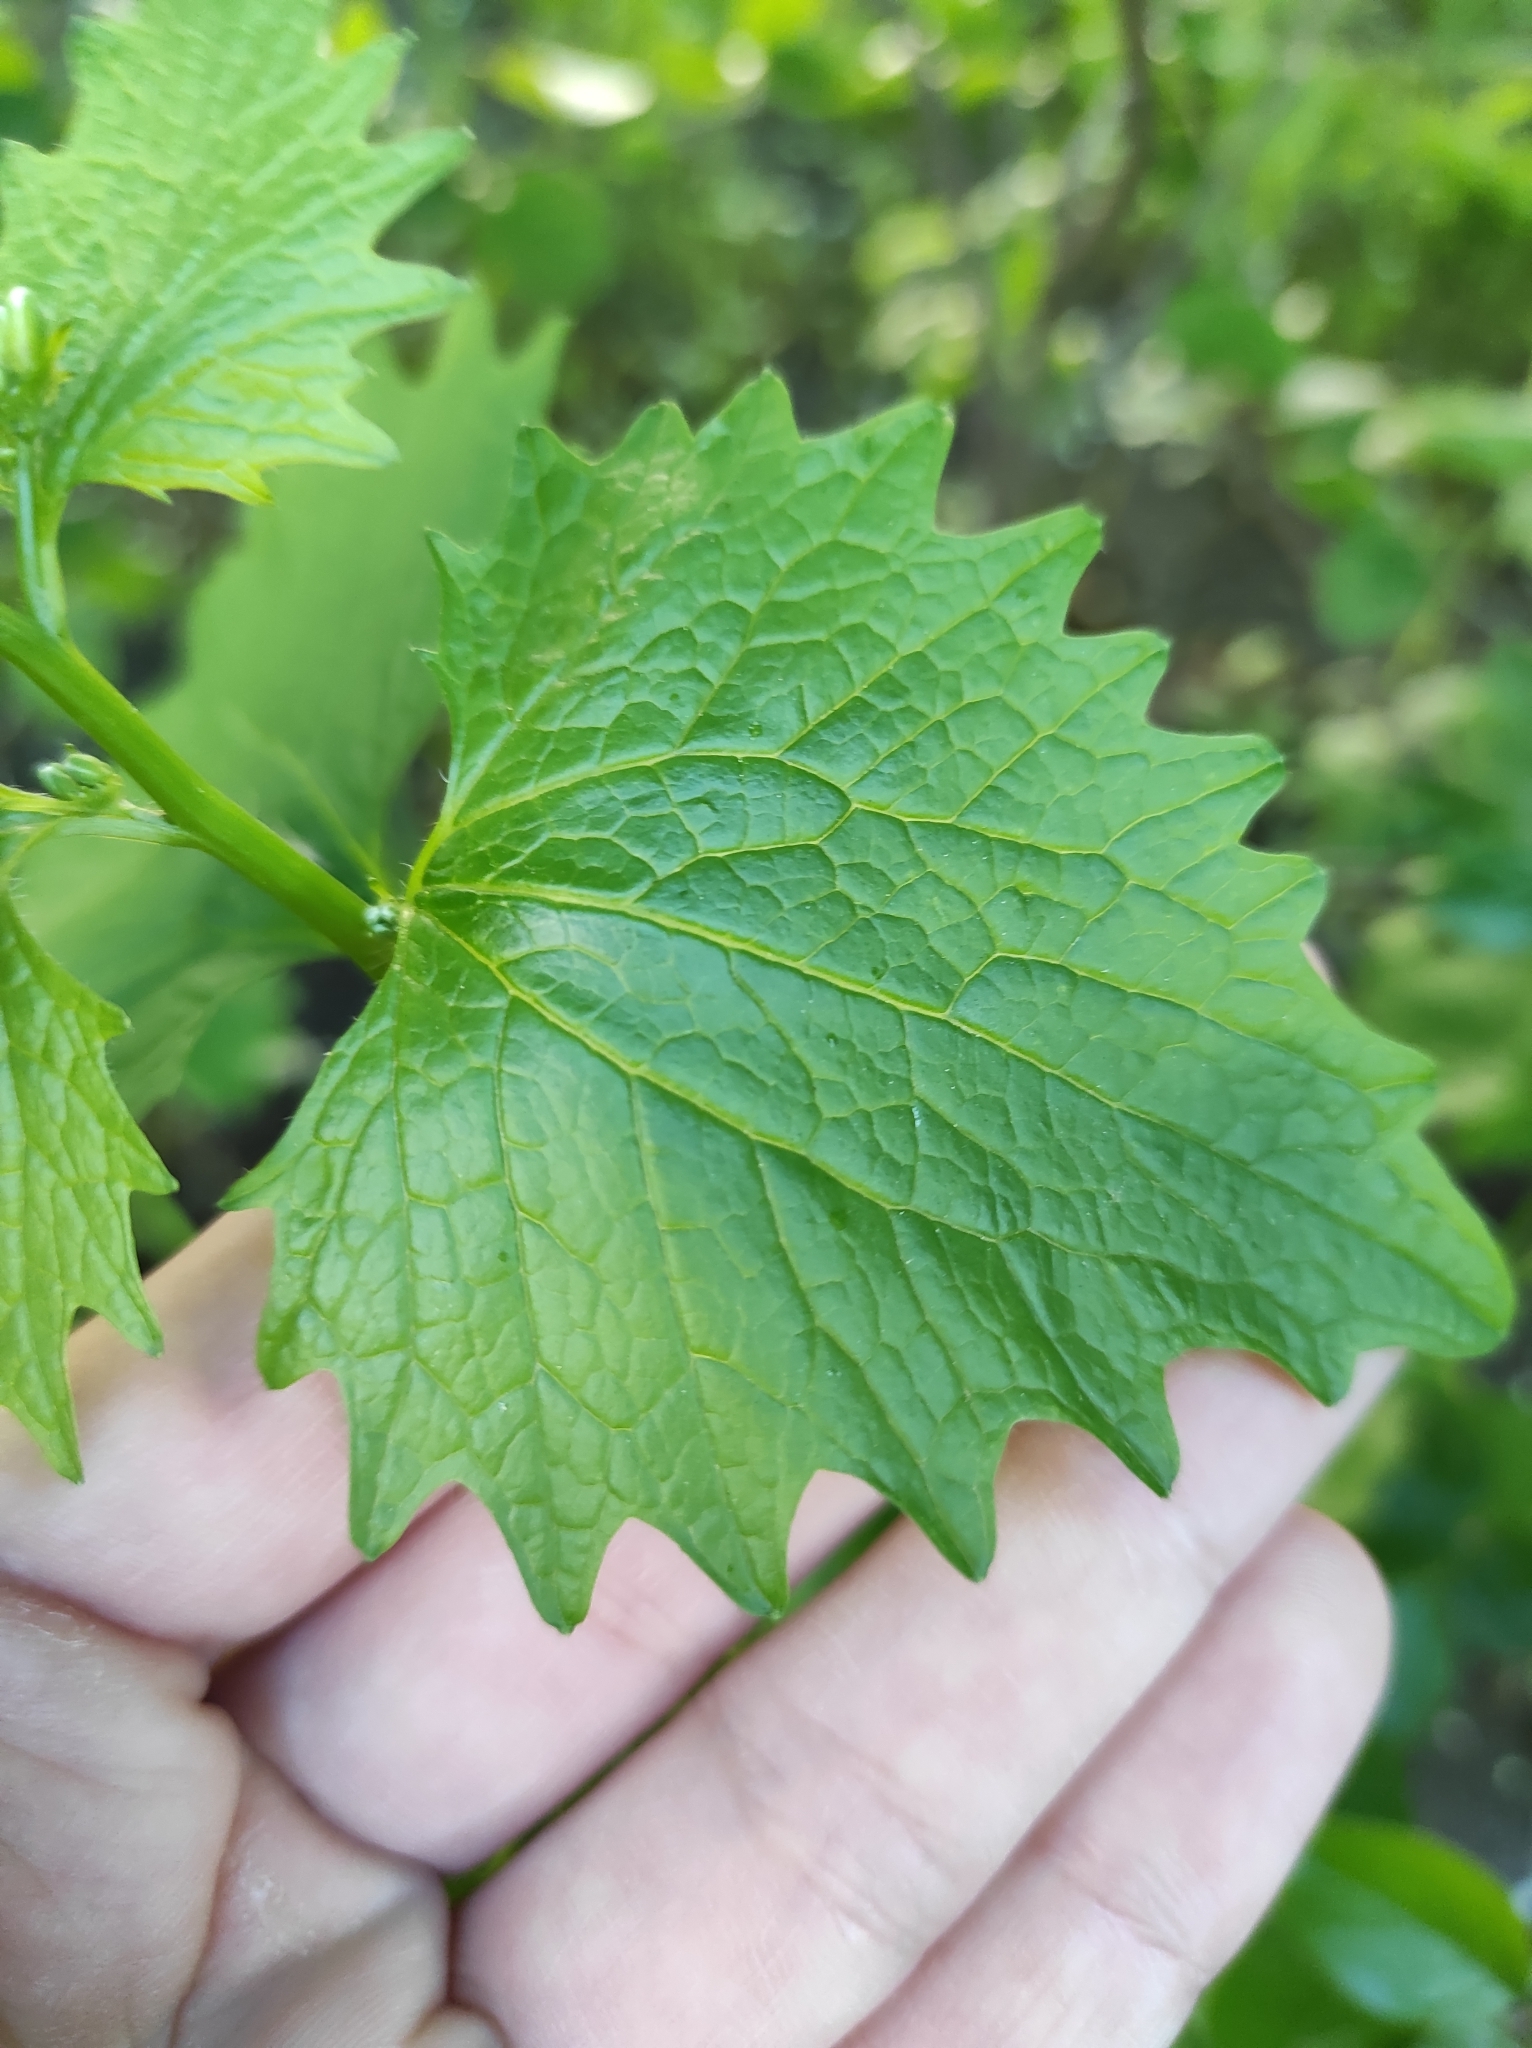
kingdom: Plantae
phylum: Tracheophyta
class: Magnoliopsida
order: Brassicales
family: Brassicaceae
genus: Alliaria
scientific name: Alliaria petiolata
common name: Garlic mustard
